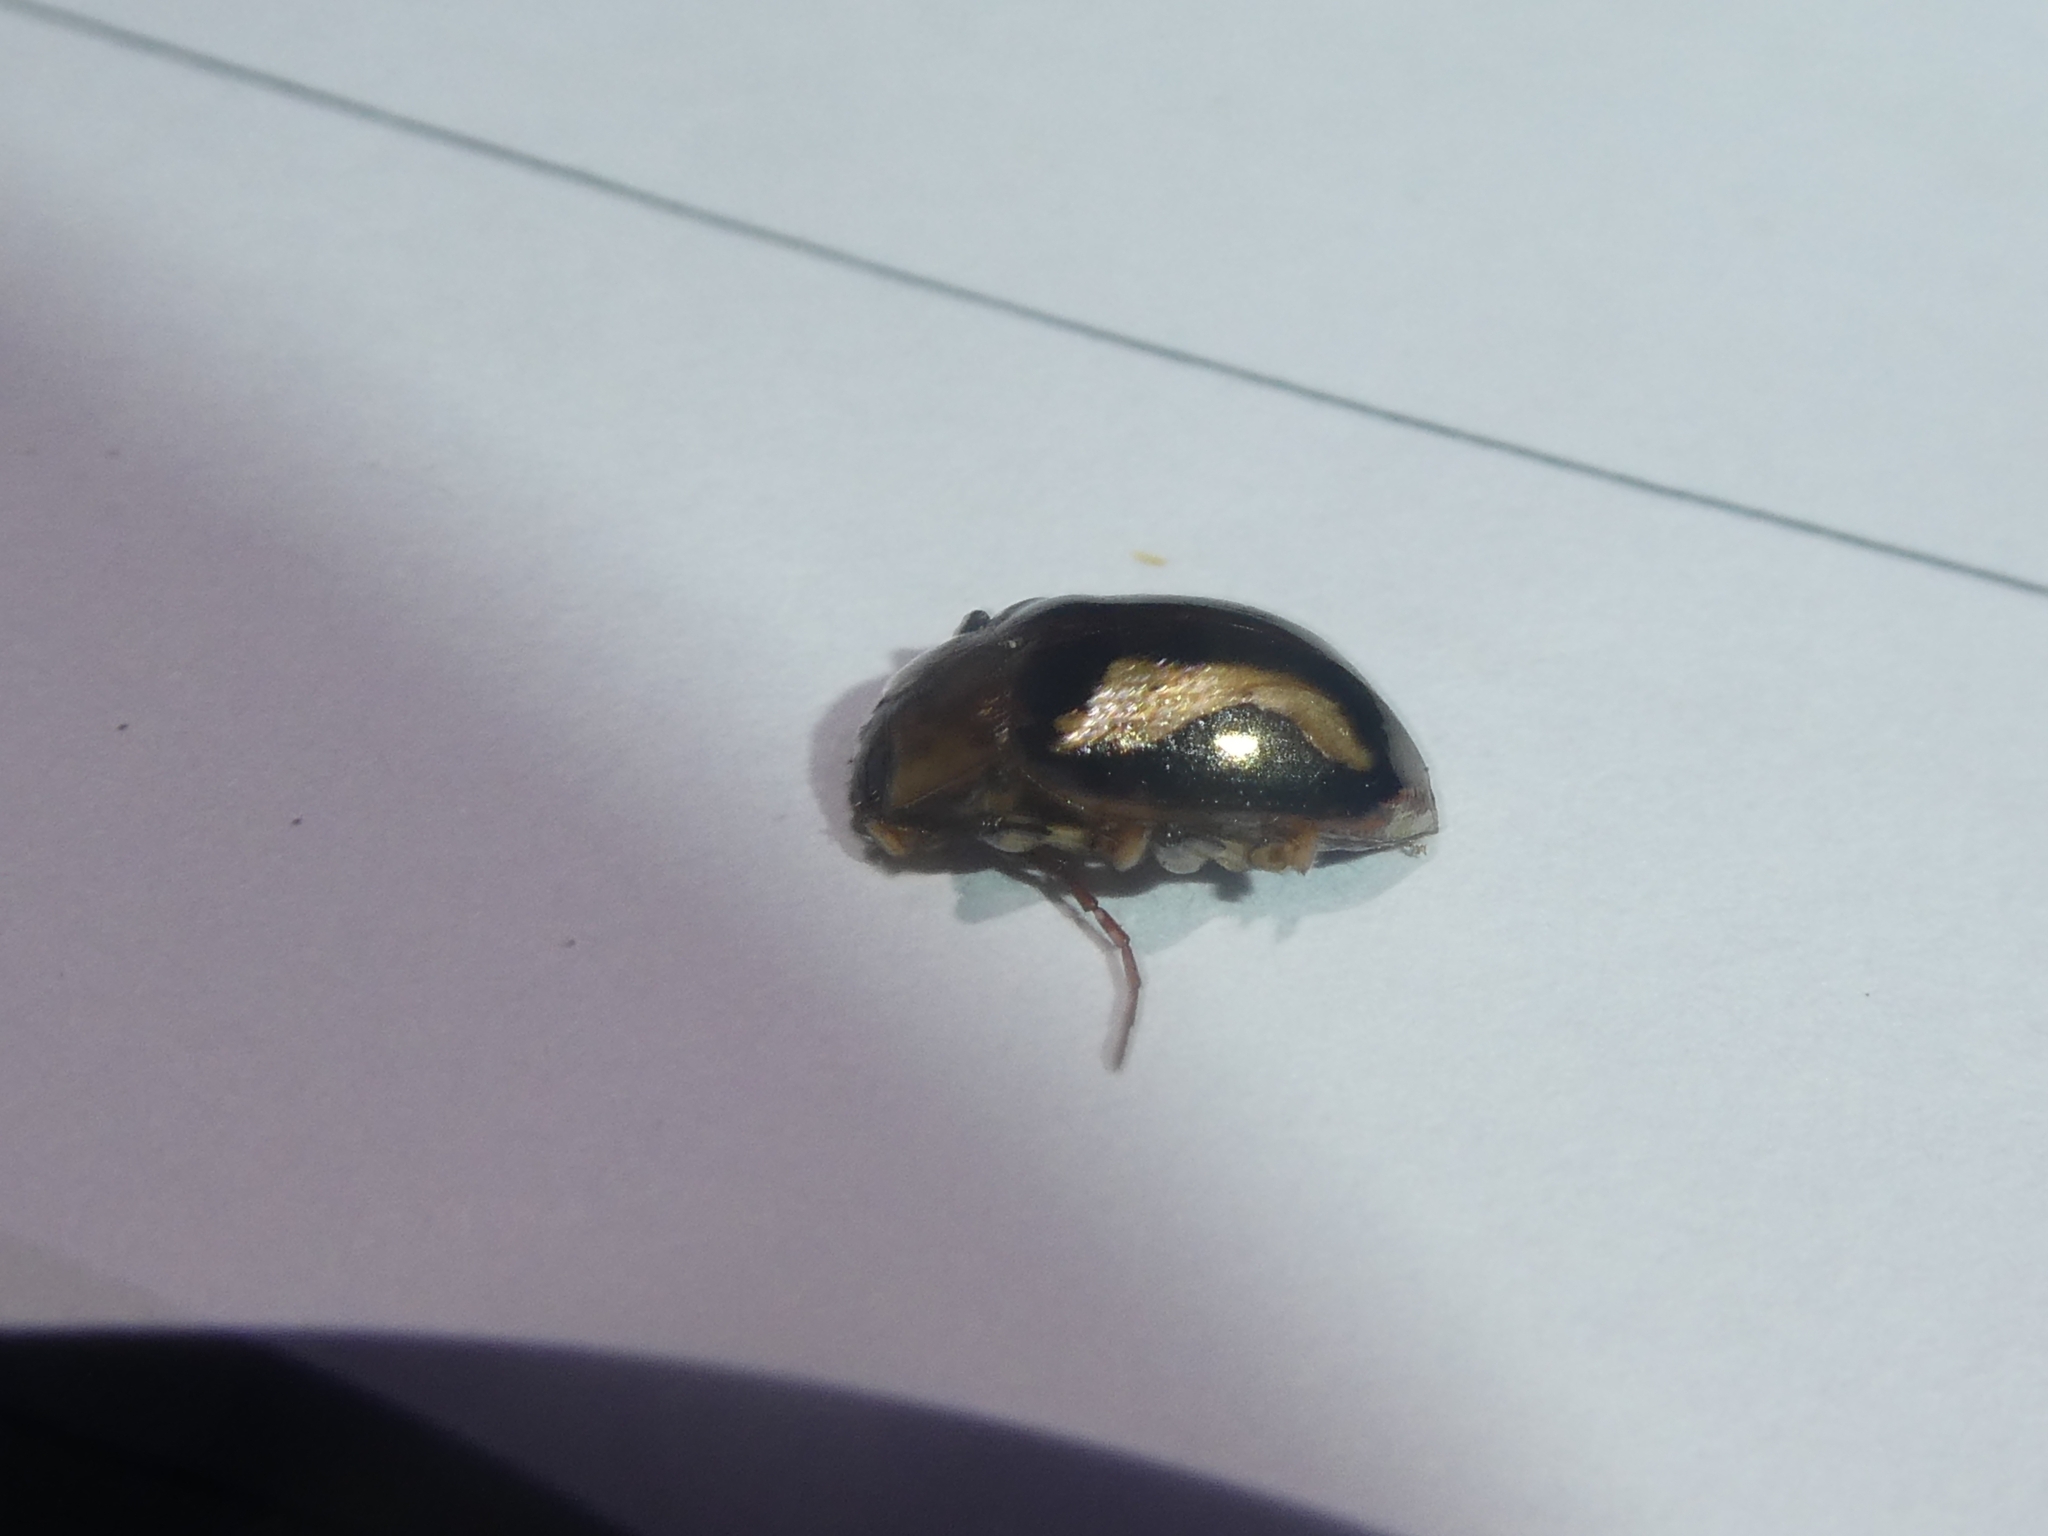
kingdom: Animalia
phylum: Arthropoda
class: Insecta
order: Coleoptera
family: Chrysomelidae
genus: Chalcolampra
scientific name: Chalcolampra speculifera
